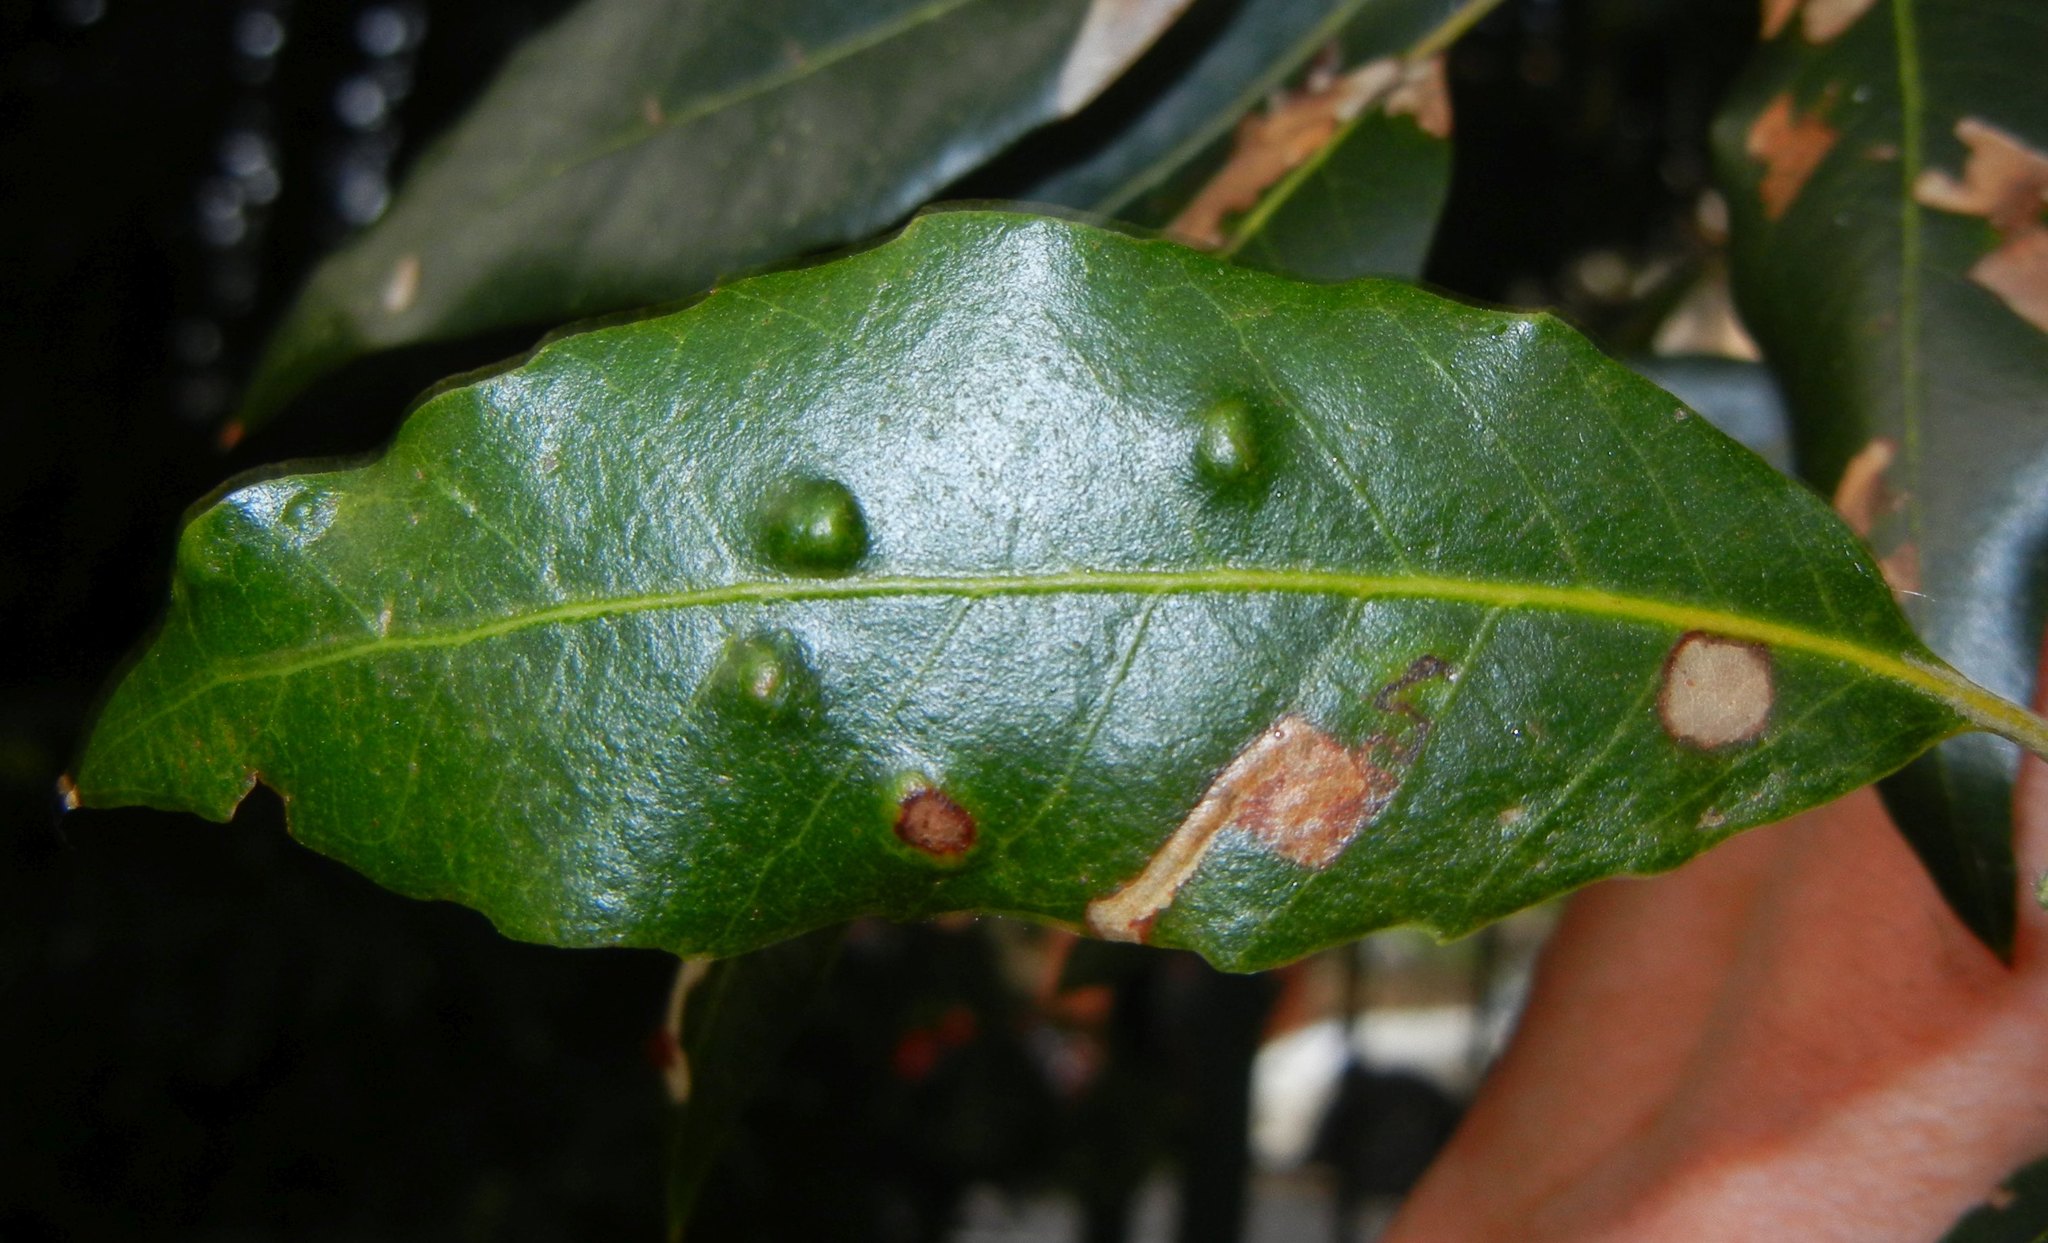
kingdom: Animalia
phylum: Arthropoda
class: Arachnida
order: Trombidiformes
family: Eriophyidae
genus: Aceria
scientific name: Aceria ilicis
